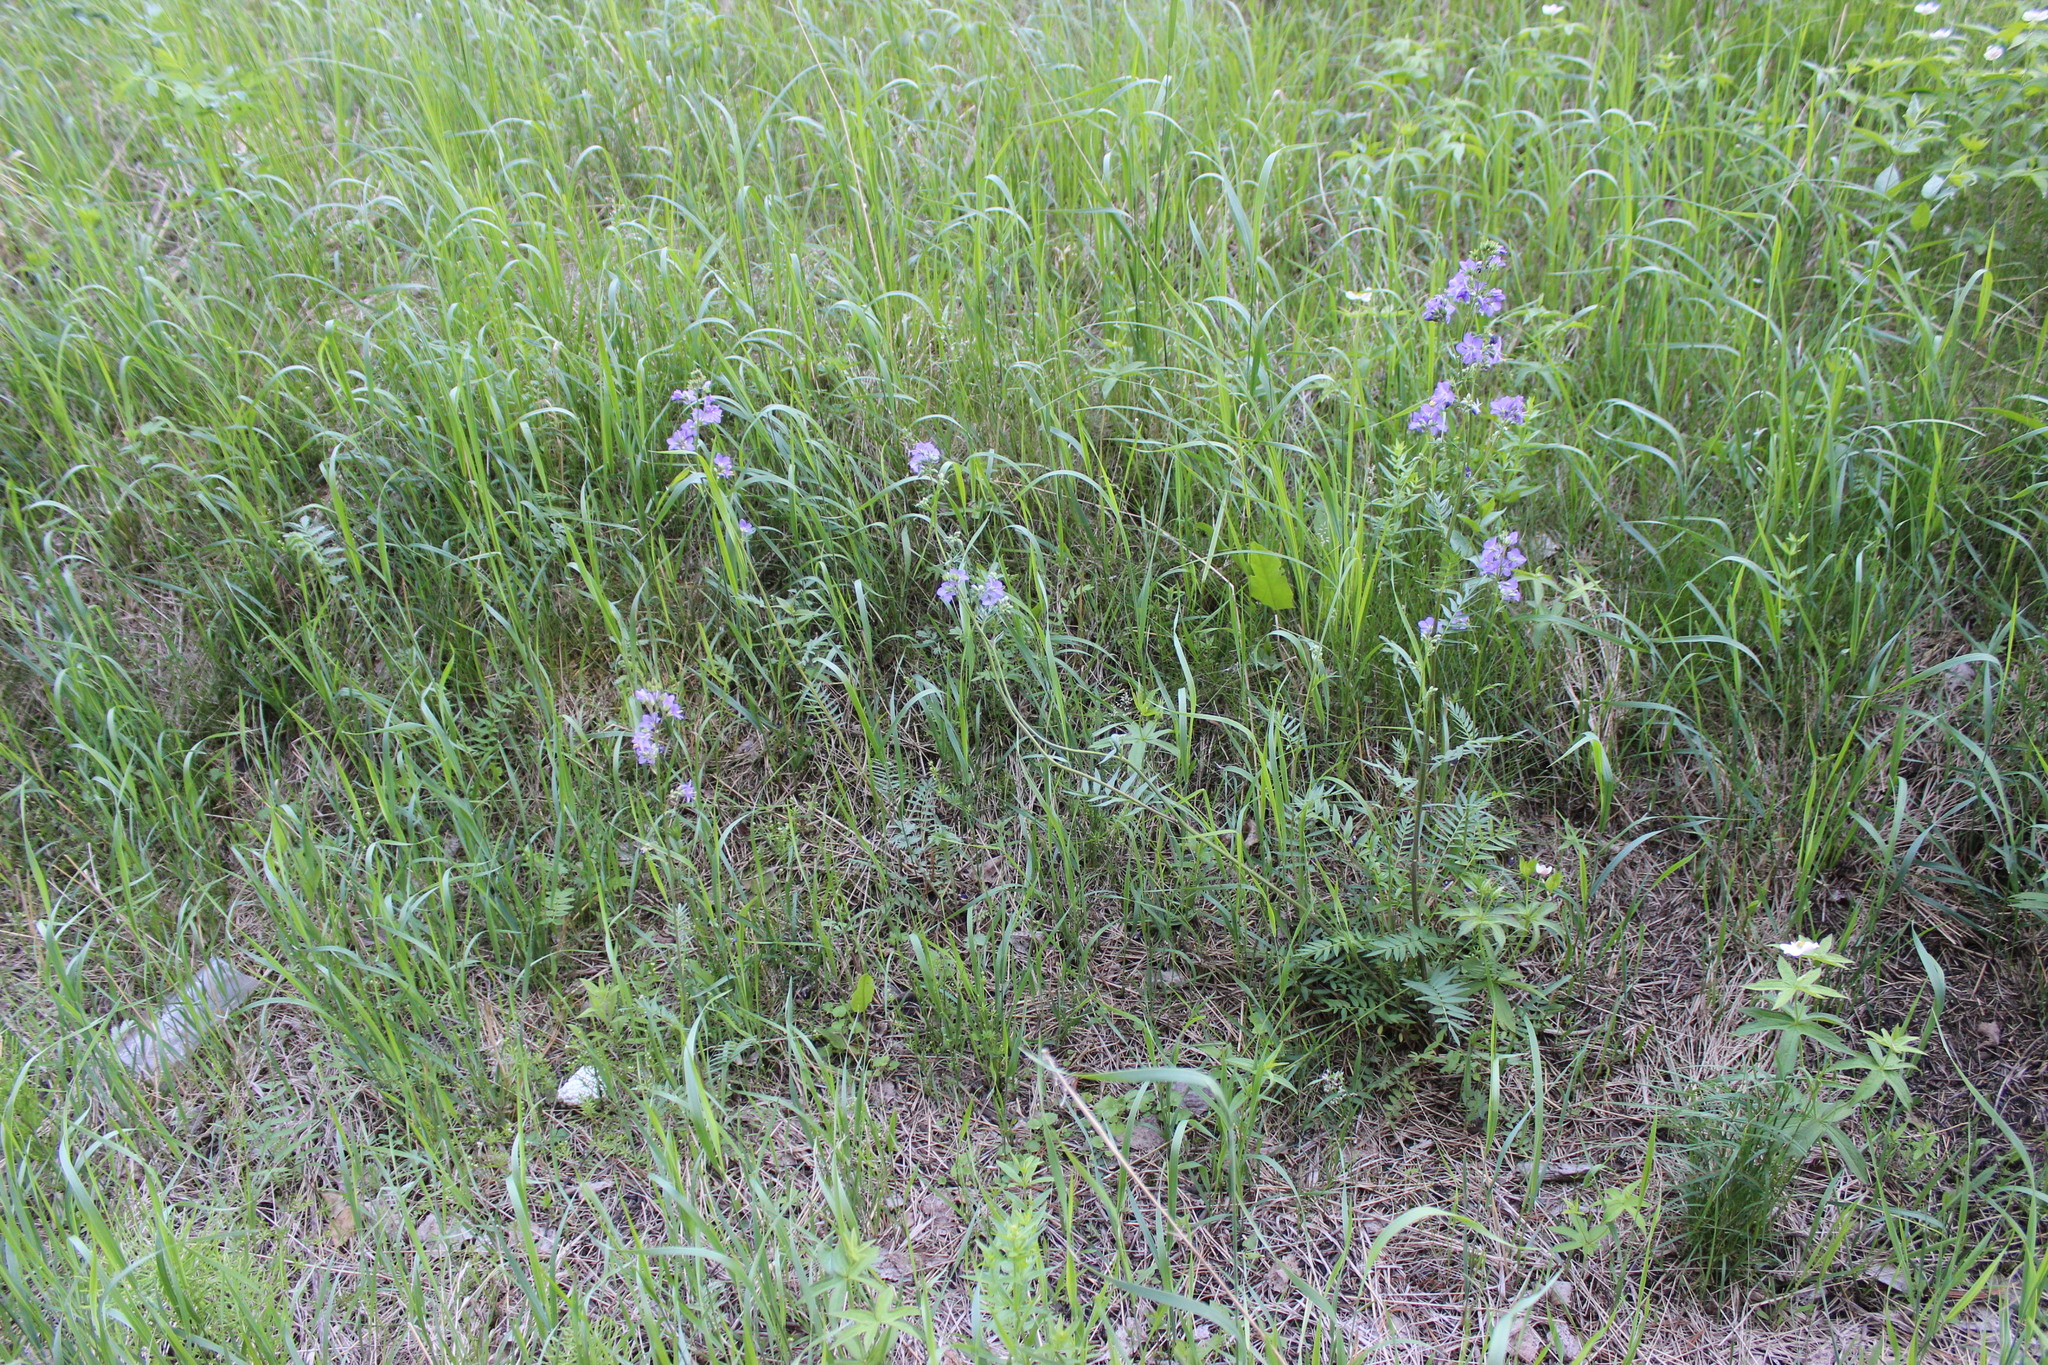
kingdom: Plantae
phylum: Tracheophyta
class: Magnoliopsida
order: Ericales
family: Polemoniaceae
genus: Polemonium
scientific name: Polemonium caeruleum
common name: Jacob's-ladder
